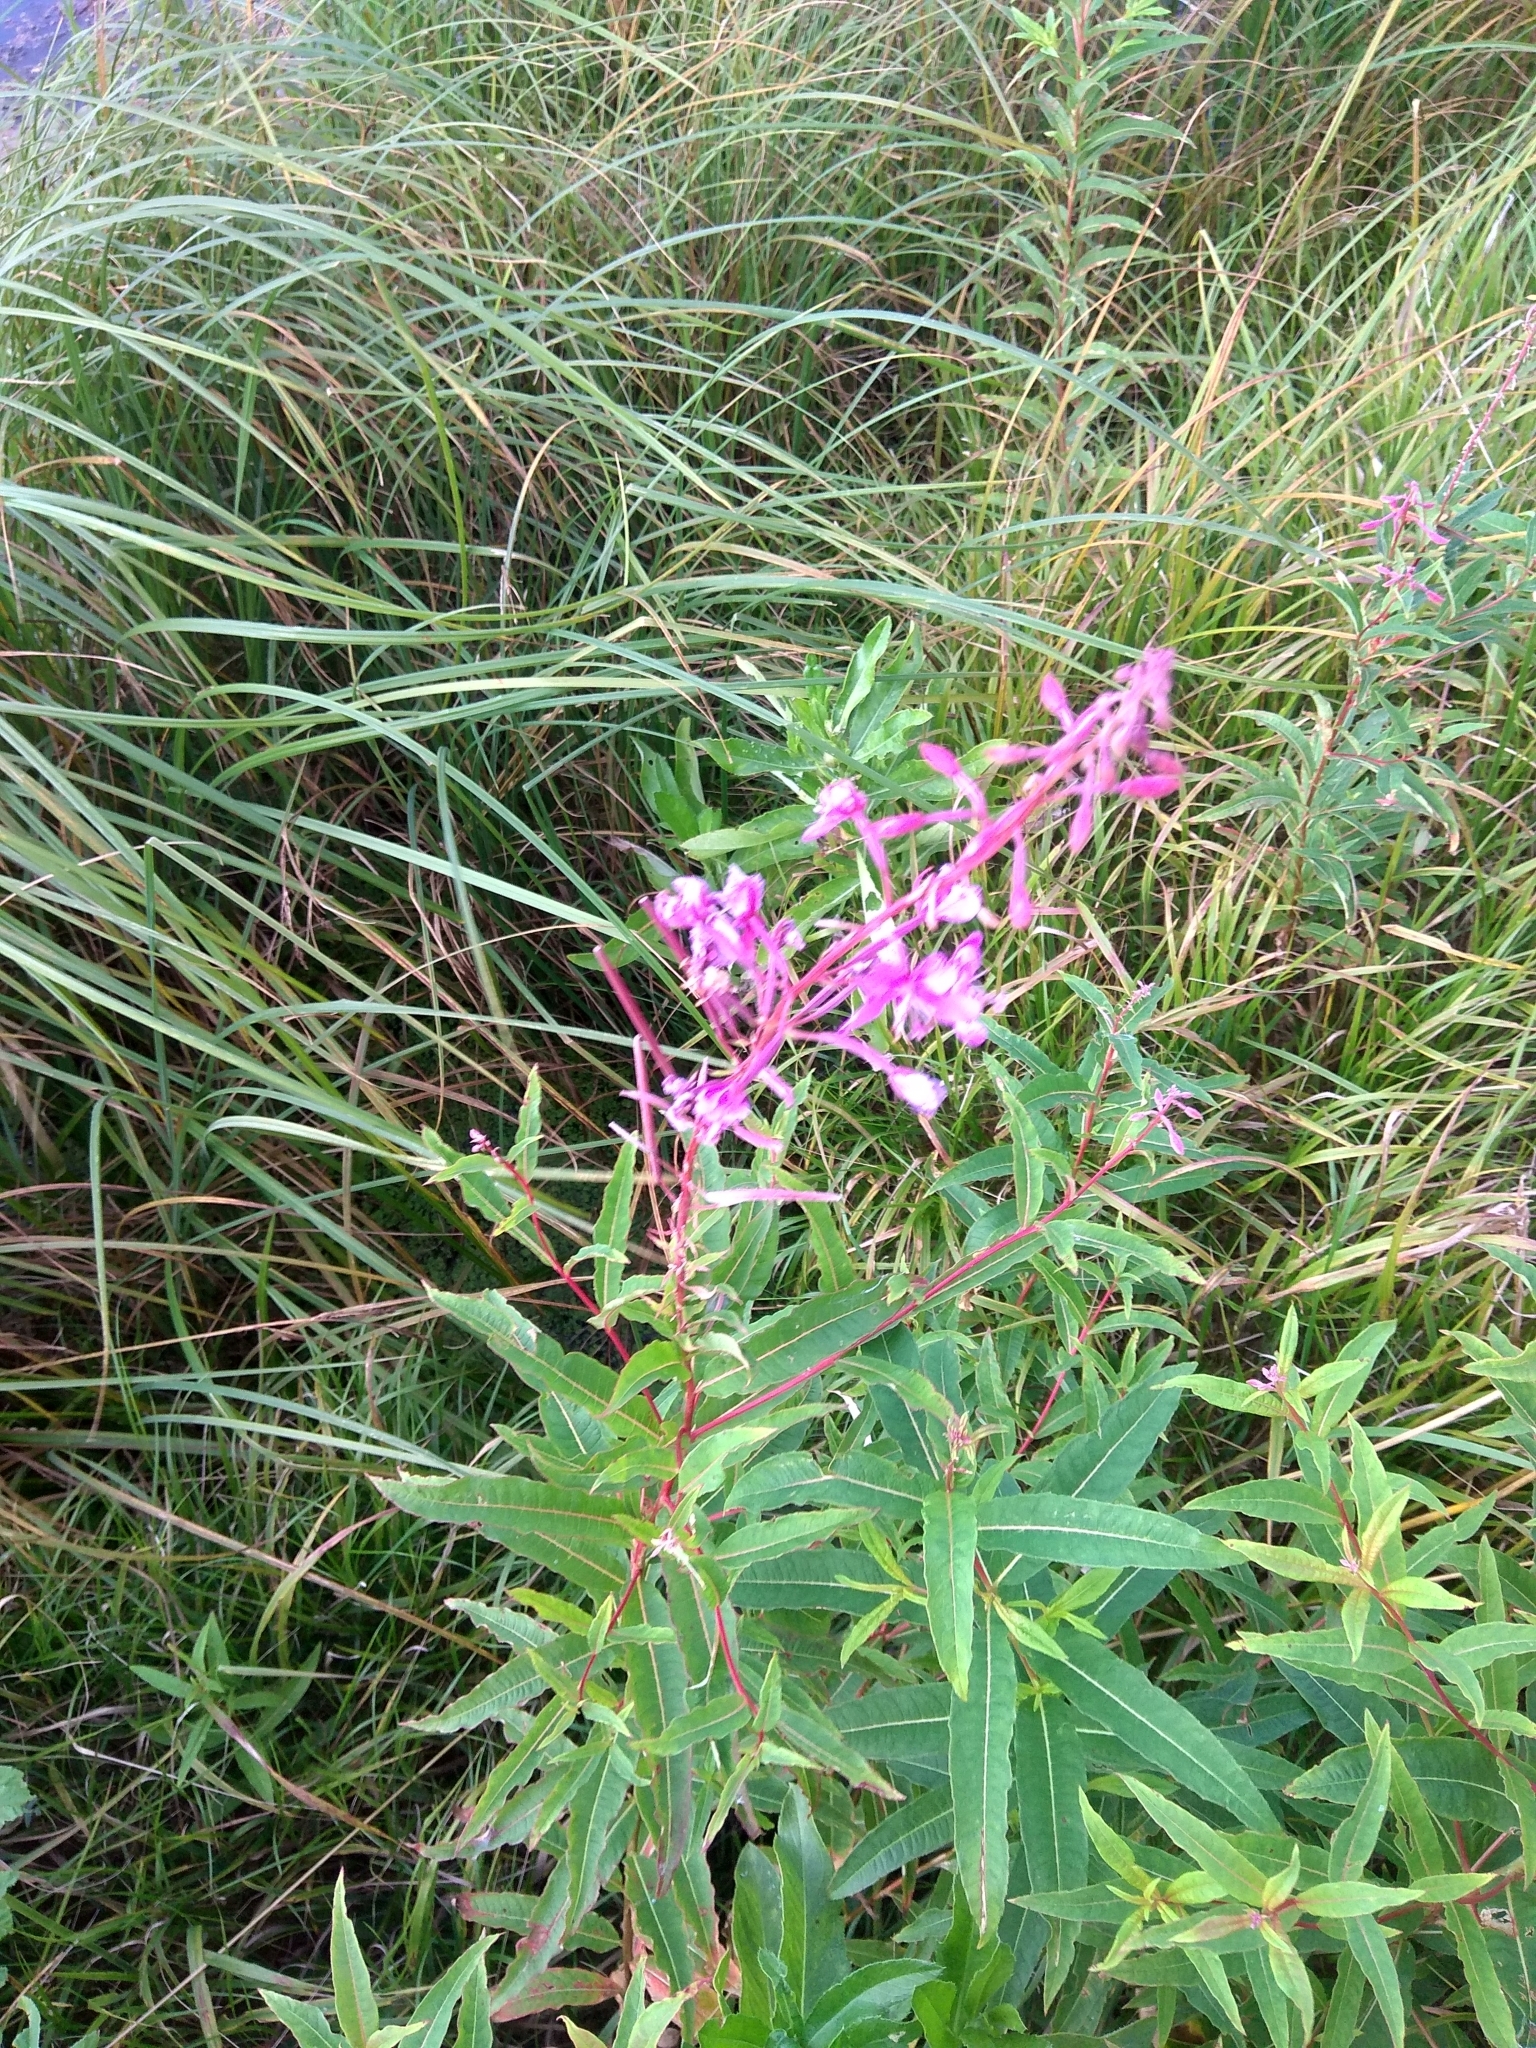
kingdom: Plantae
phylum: Tracheophyta
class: Magnoliopsida
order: Myrtales
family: Onagraceae
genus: Chamaenerion
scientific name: Chamaenerion angustifolium
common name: Fireweed
